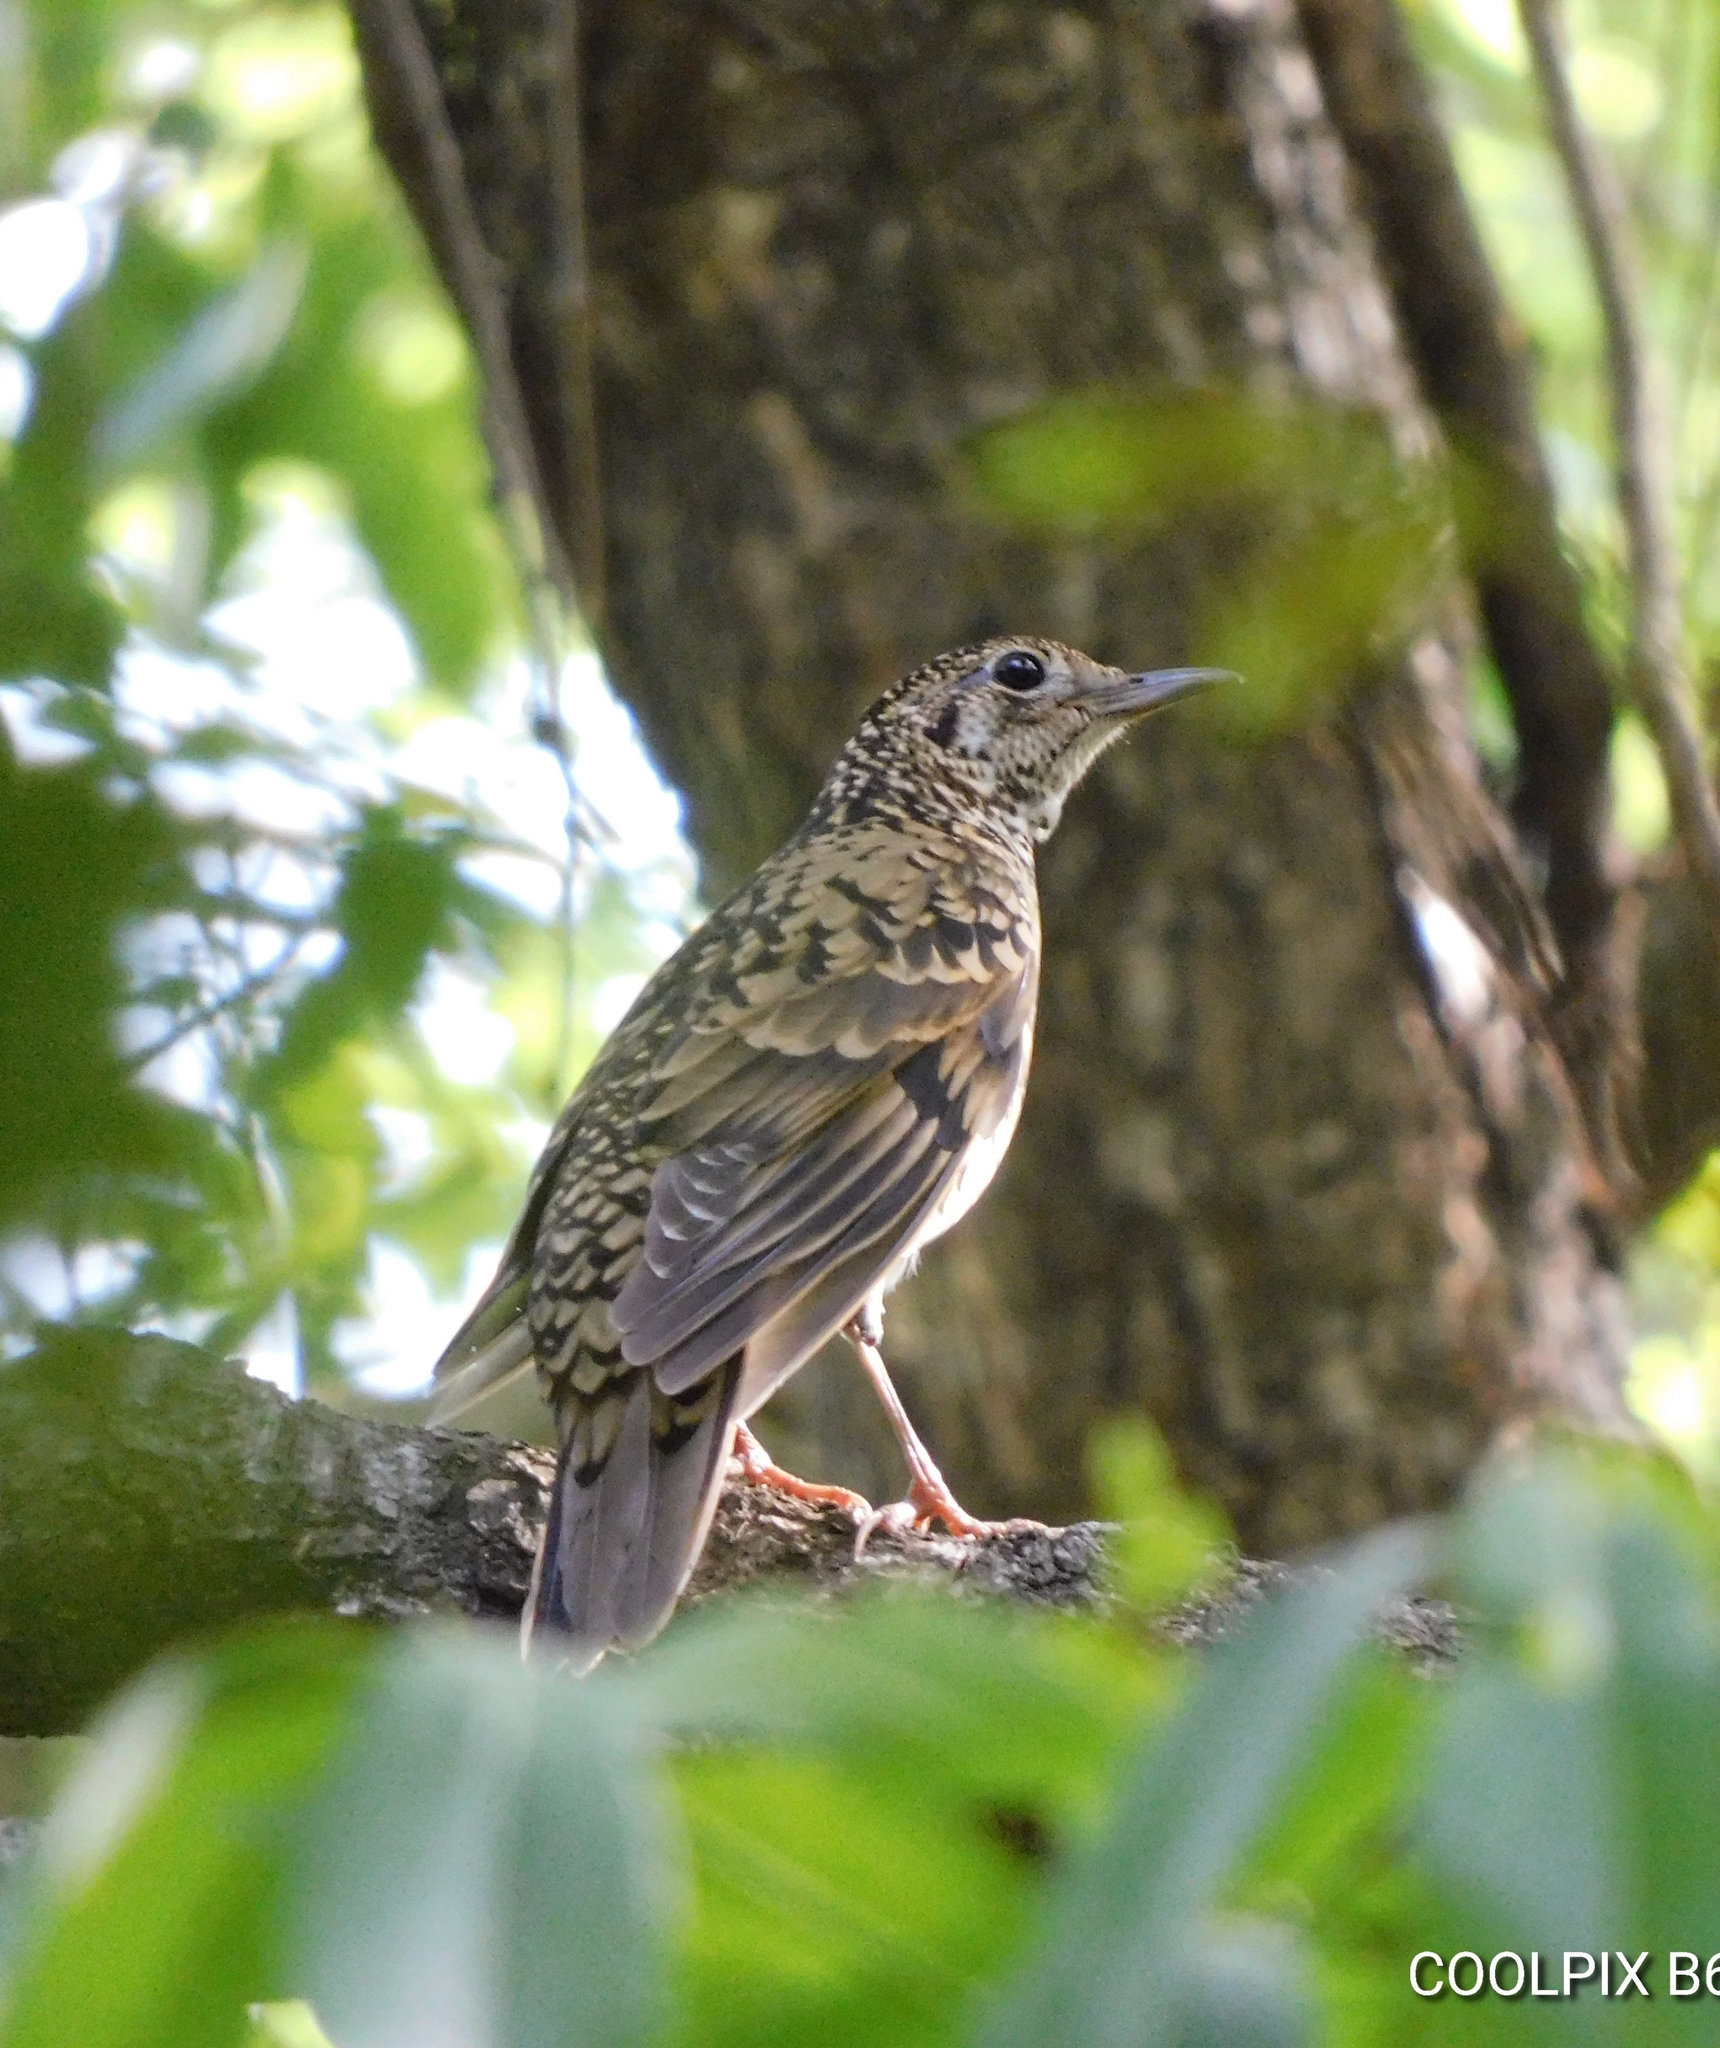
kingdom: Animalia
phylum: Chordata
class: Aves
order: Passeriformes
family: Turdidae
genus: Zoothera
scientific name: Zoothera dauma
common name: Scaly thrush
